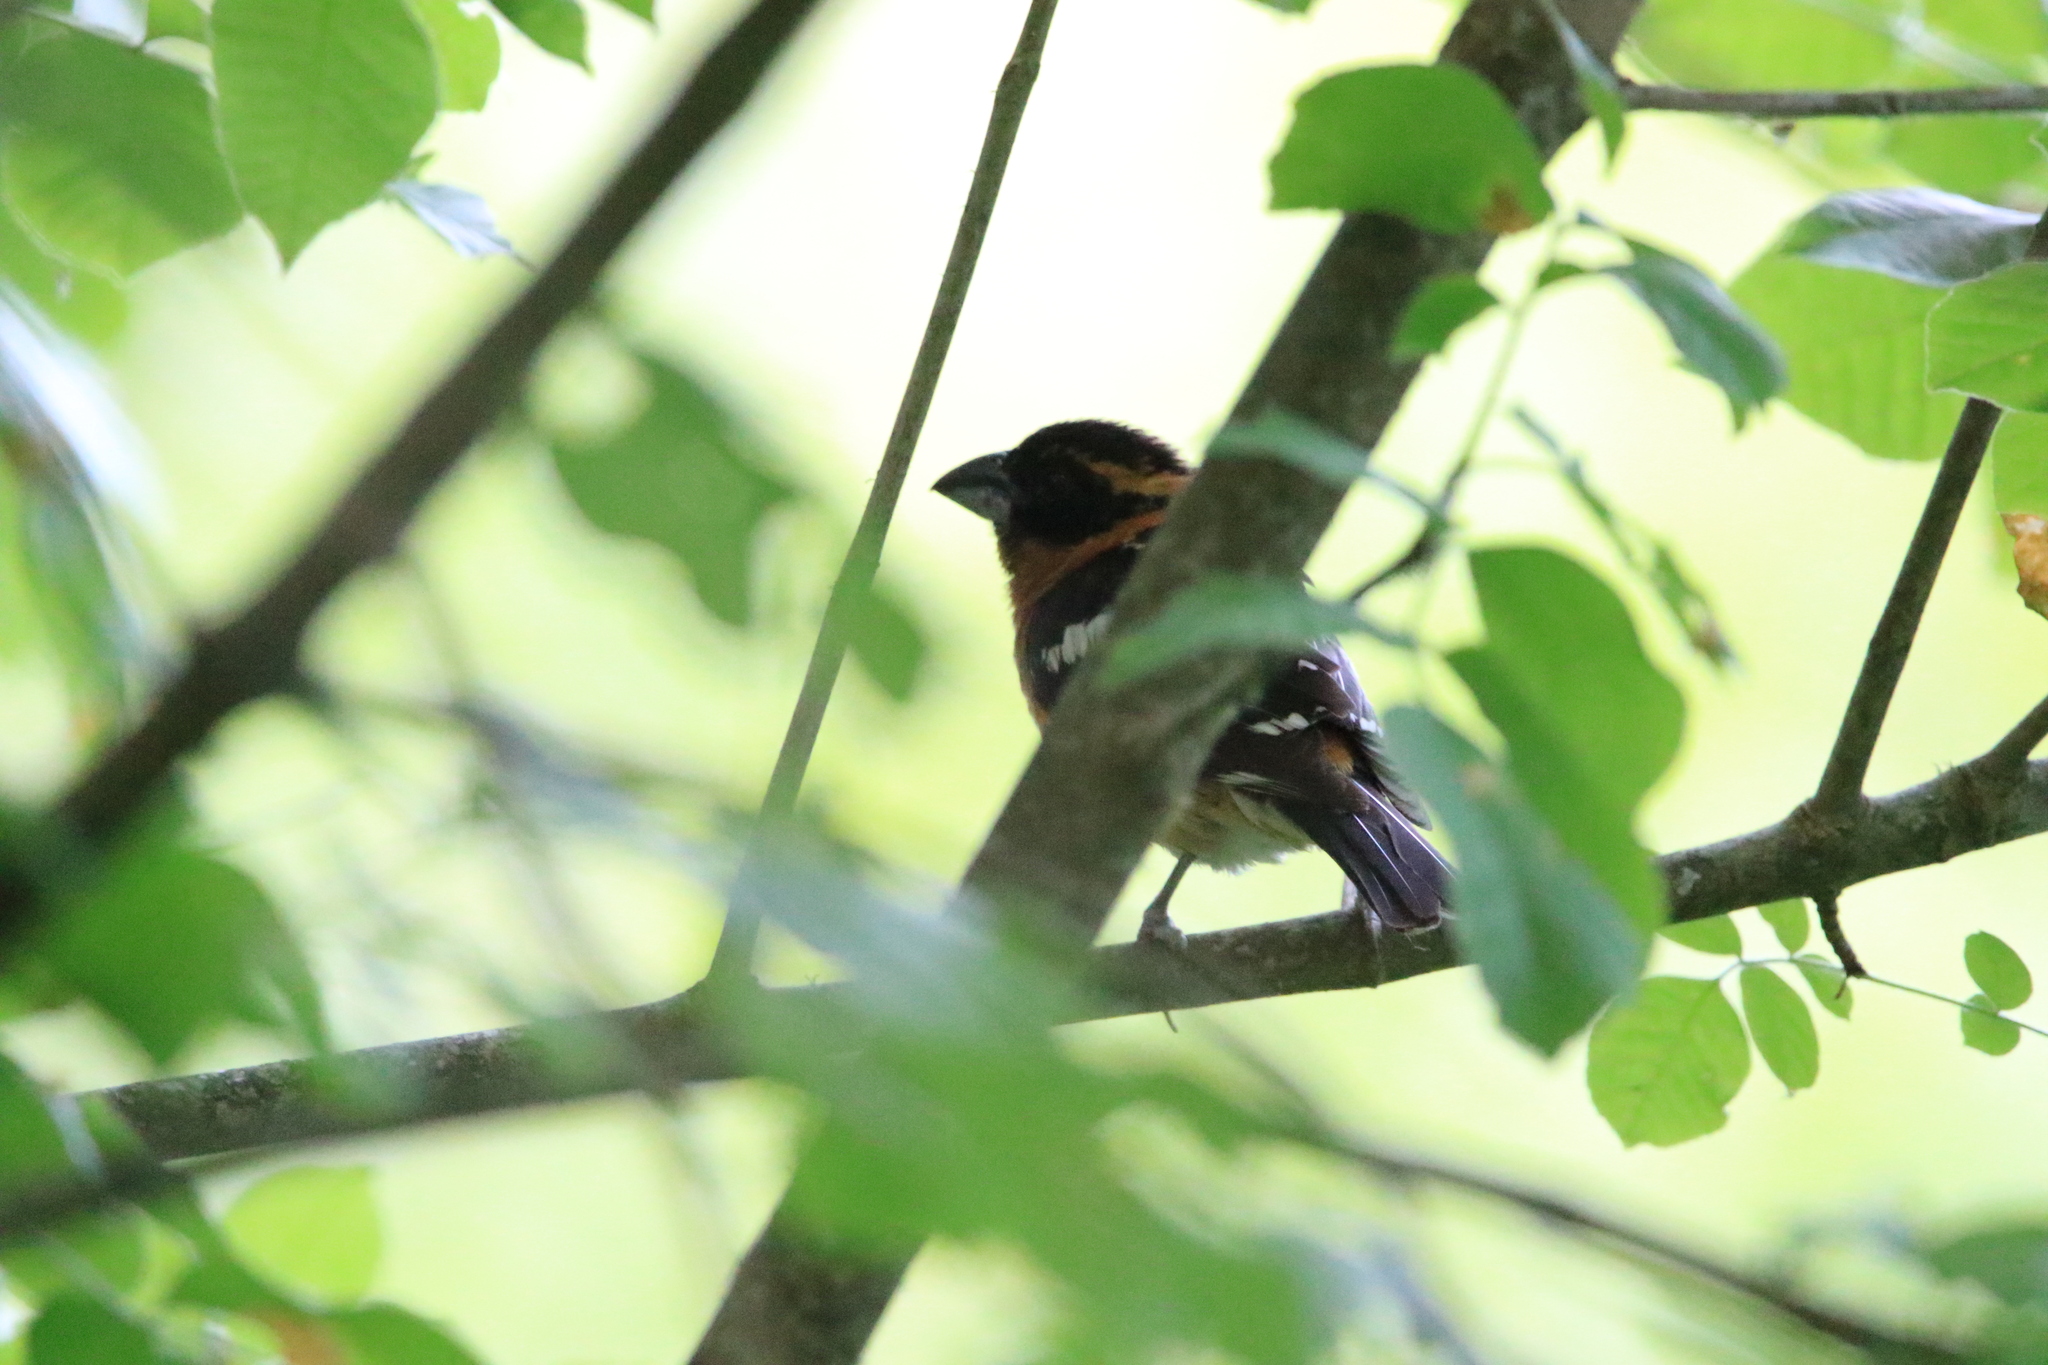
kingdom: Animalia
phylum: Chordata
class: Aves
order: Passeriformes
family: Cardinalidae
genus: Pheucticus
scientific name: Pheucticus melanocephalus
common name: Black-headed grosbeak
